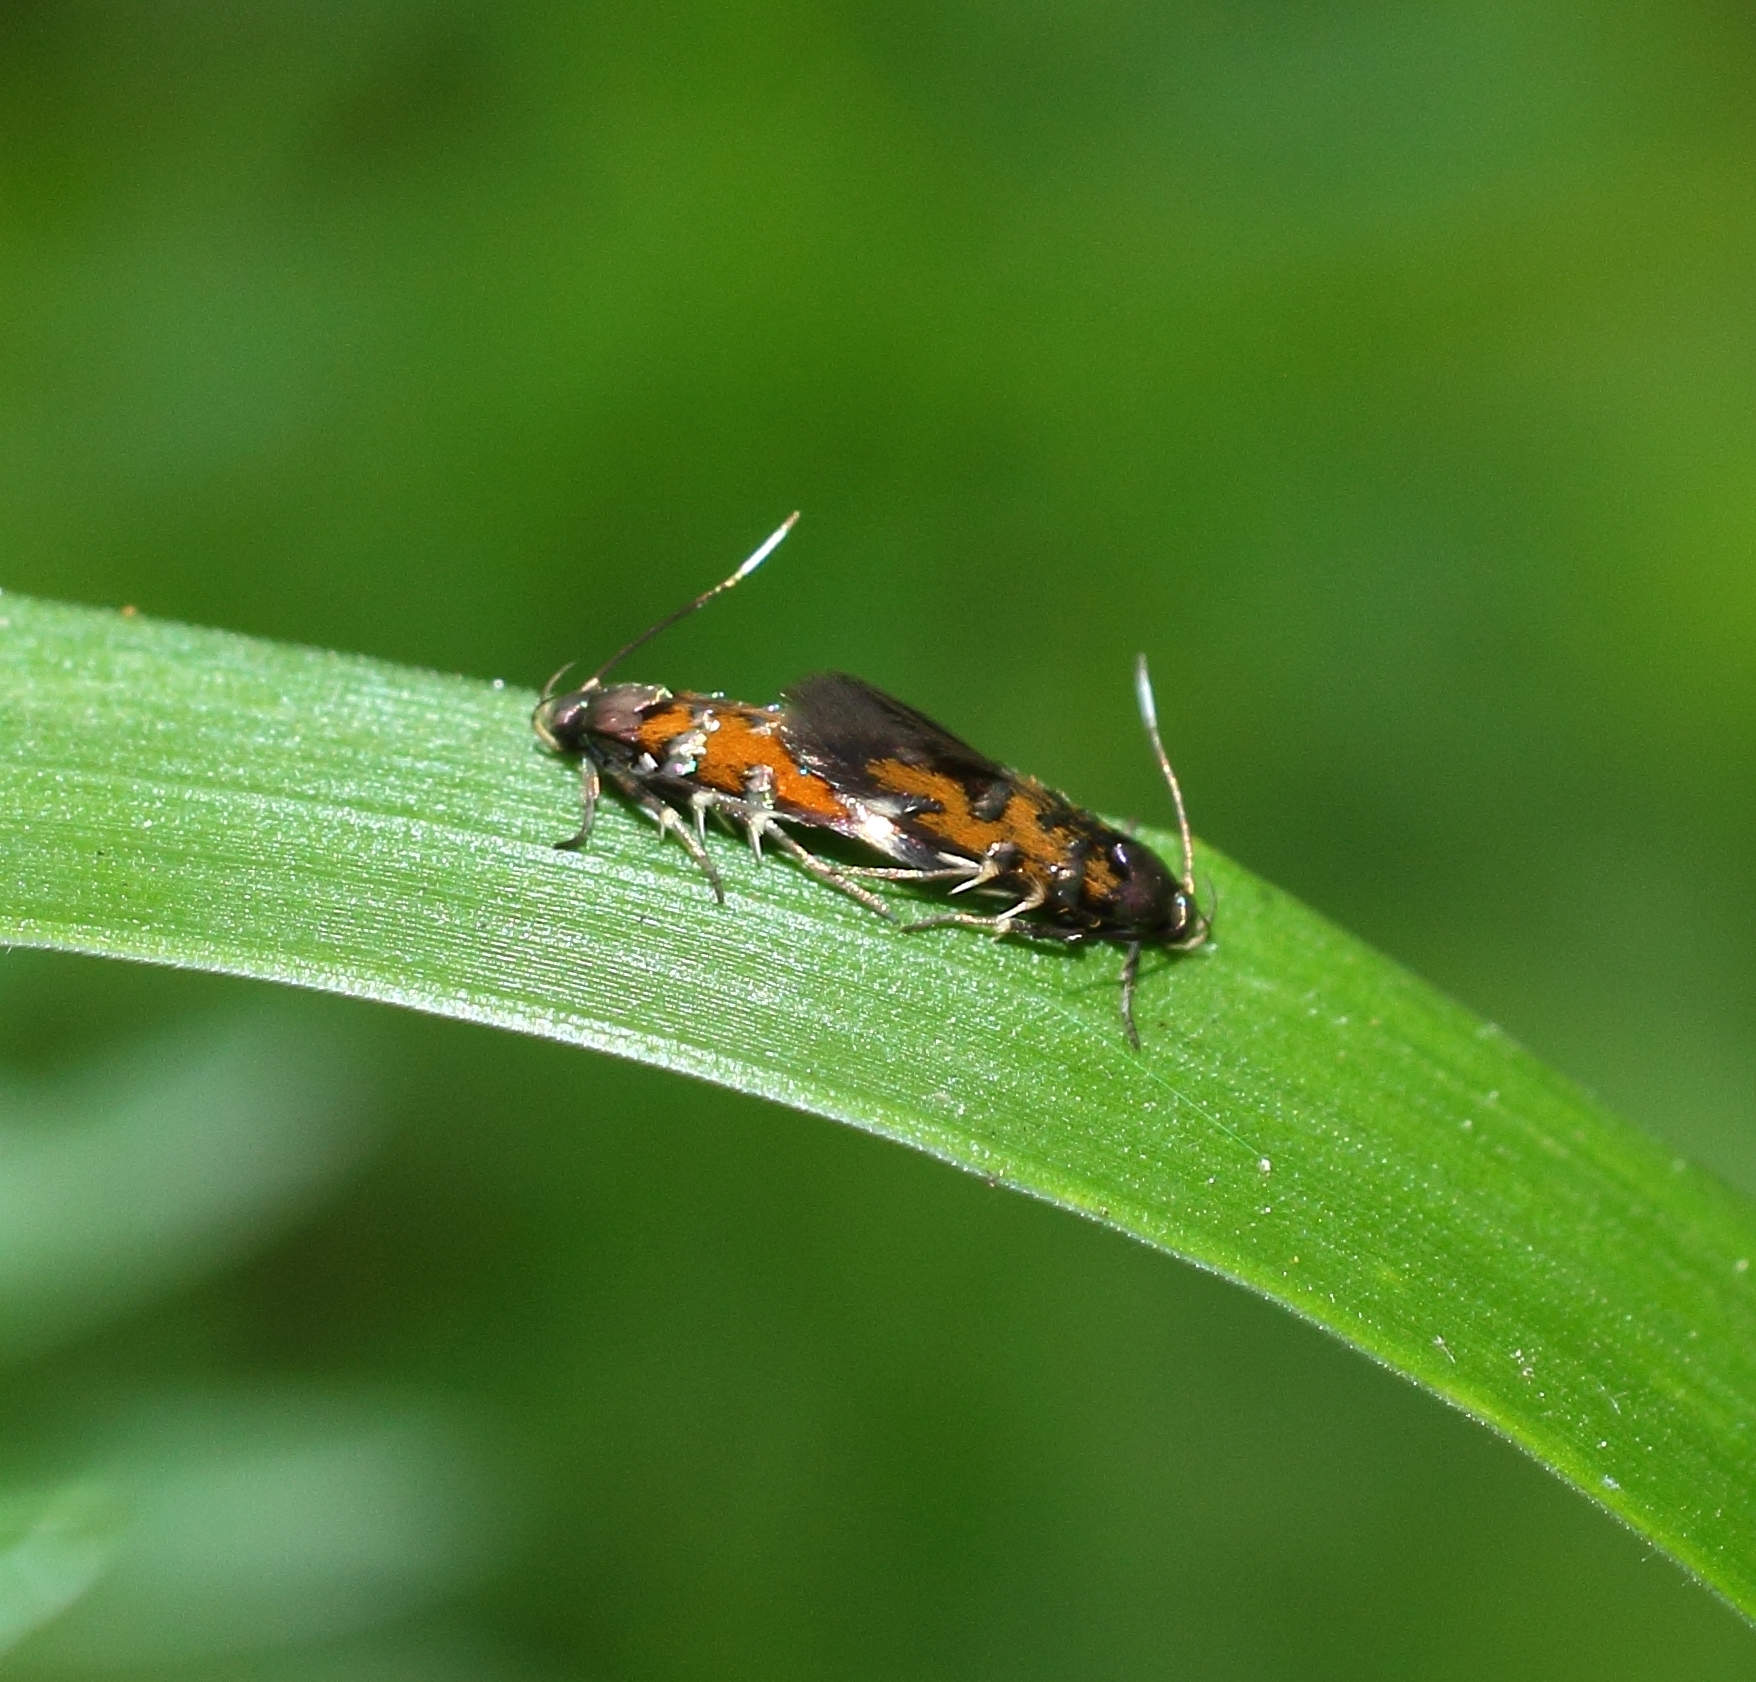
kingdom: Animalia
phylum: Arthropoda
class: Insecta
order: Lepidoptera
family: Cosmopterigidae
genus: Pancalia
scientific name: Pancalia leuwenhoekella
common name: Violet cosmet
